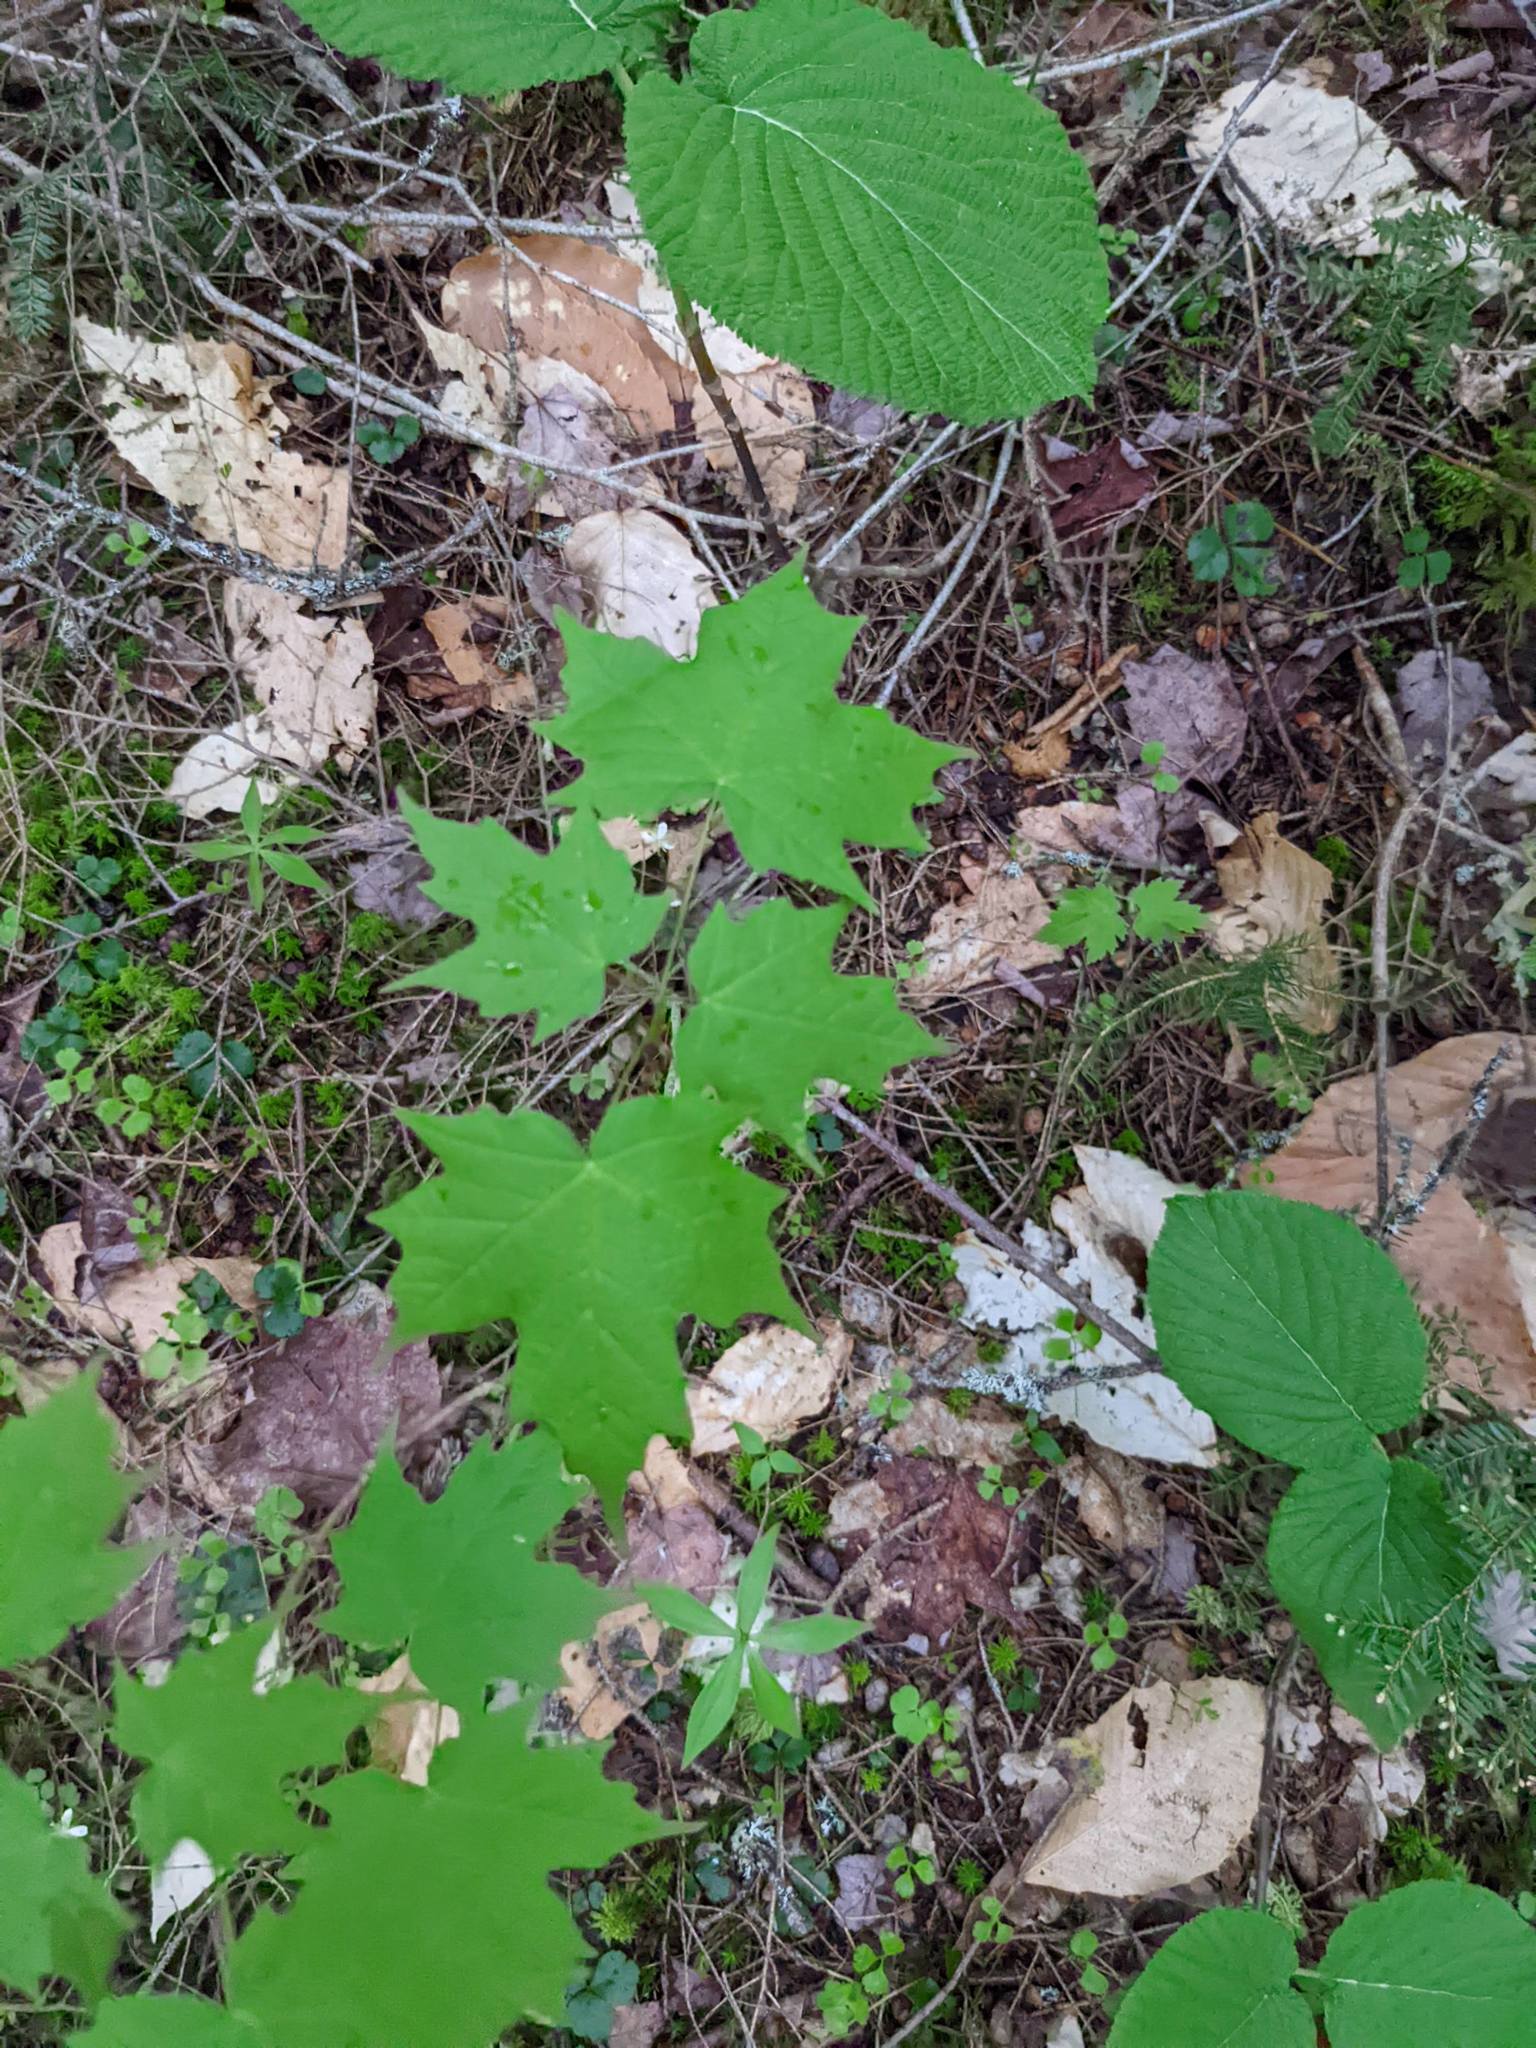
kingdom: Plantae
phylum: Tracheophyta
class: Magnoliopsida
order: Sapindales
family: Sapindaceae
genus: Acer
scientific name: Acer saccharum
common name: Sugar maple
